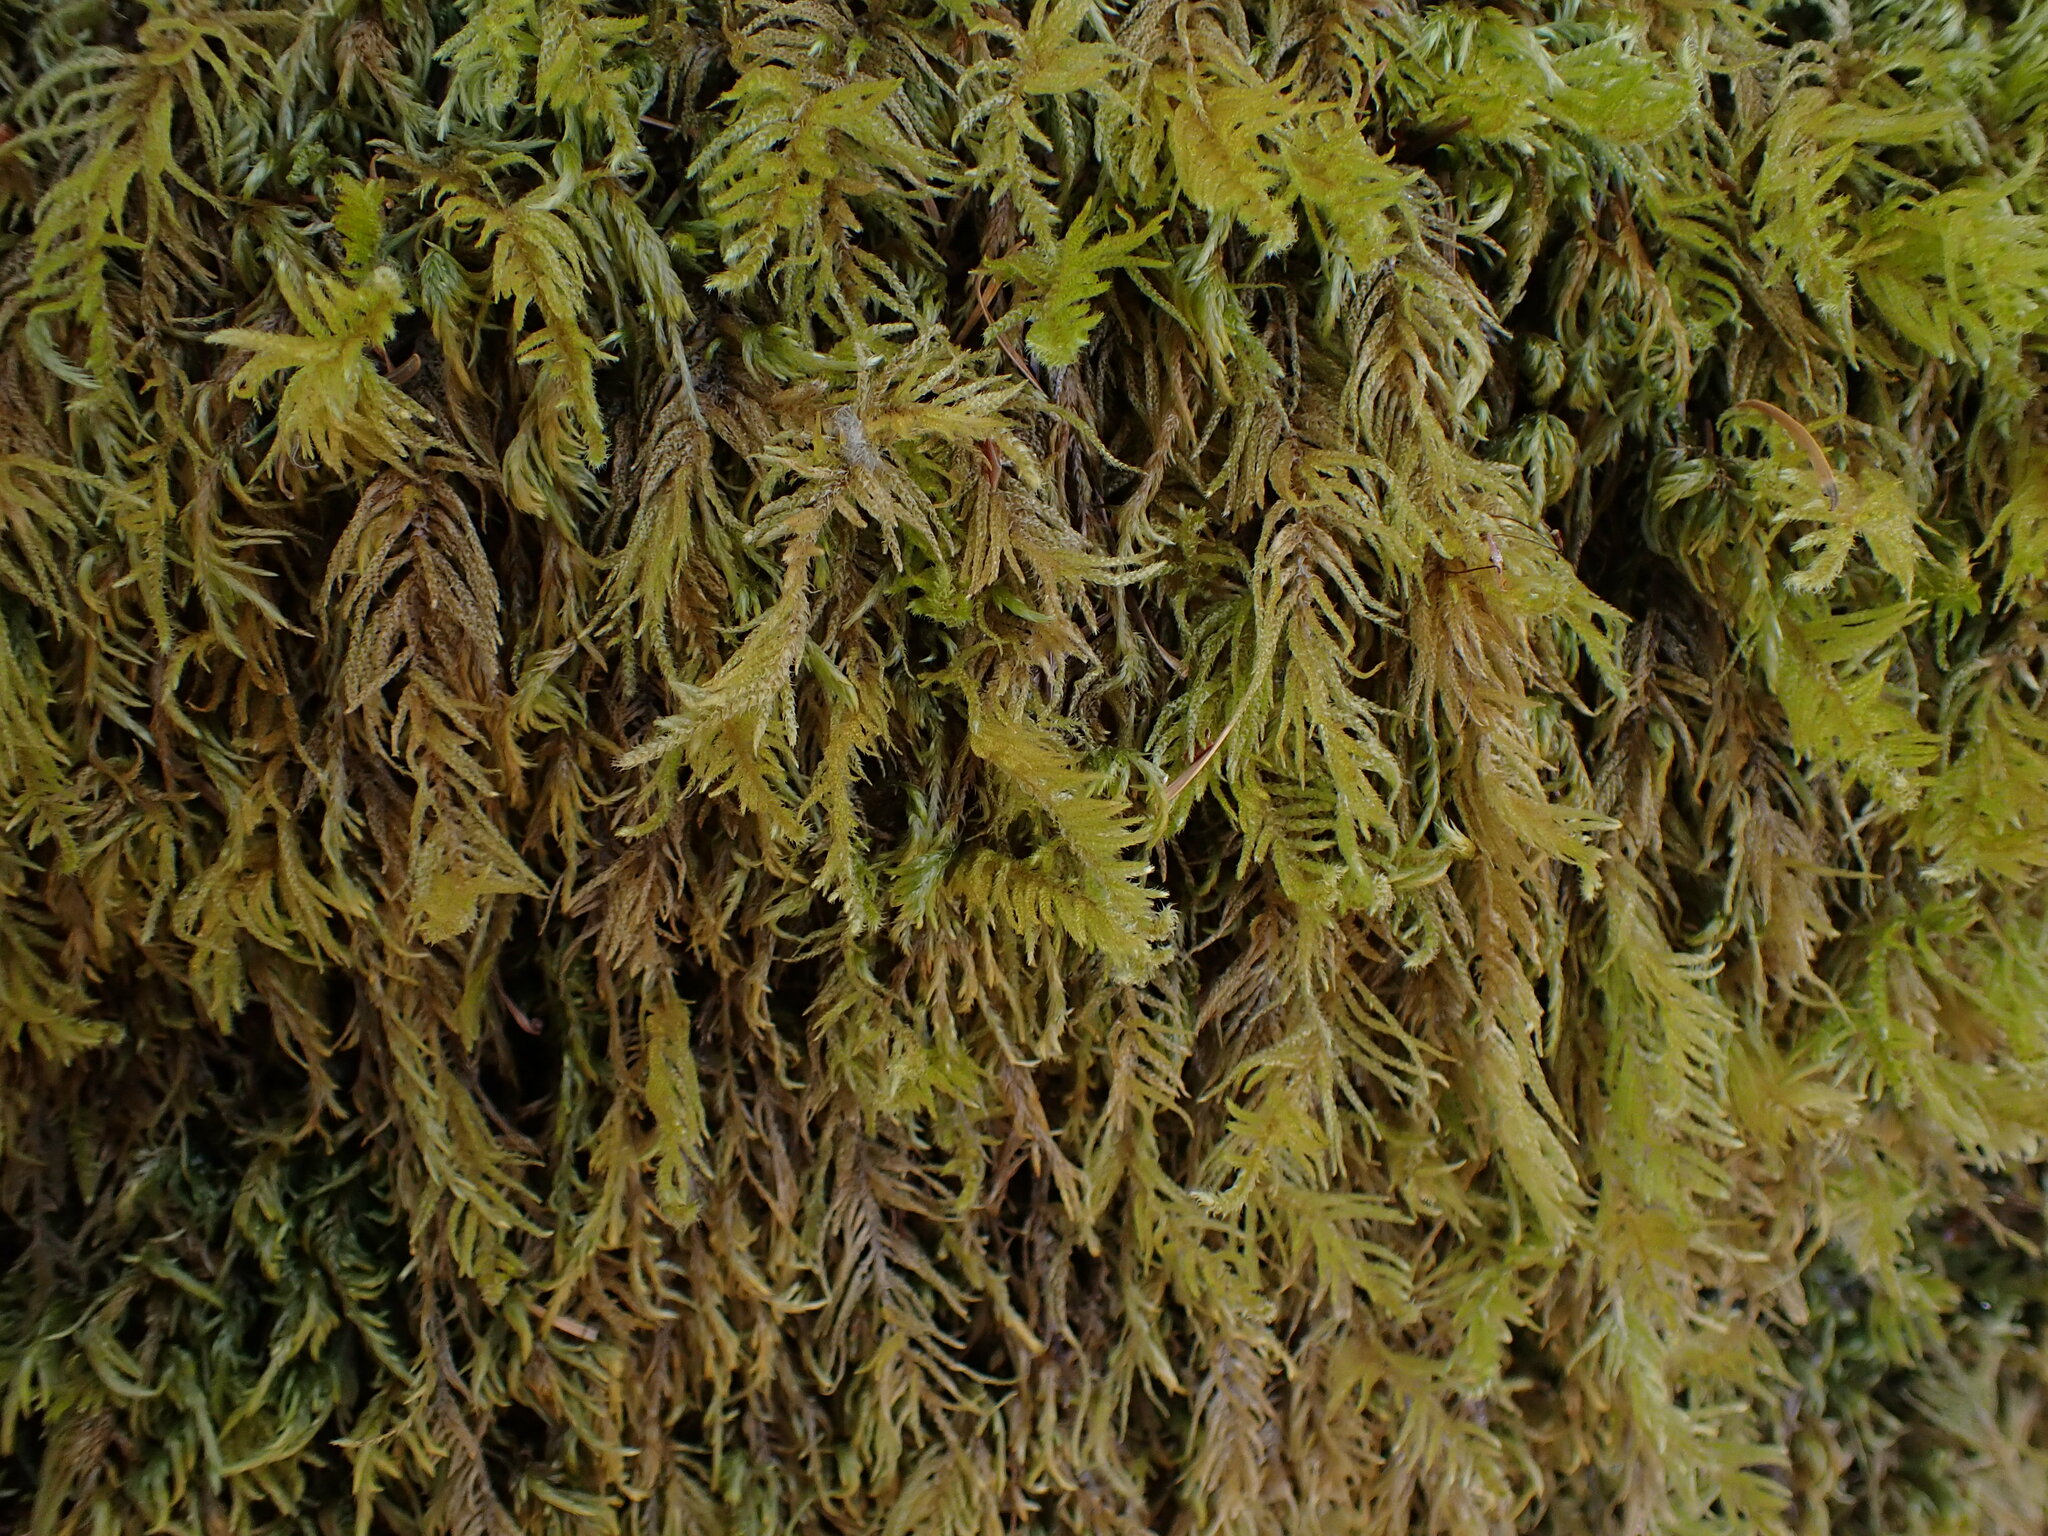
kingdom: Plantae
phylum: Bryophyta
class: Bryopsida
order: Hypnales
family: Brachytheciaceae
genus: Kindbergia
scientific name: Kindbergia oregana
